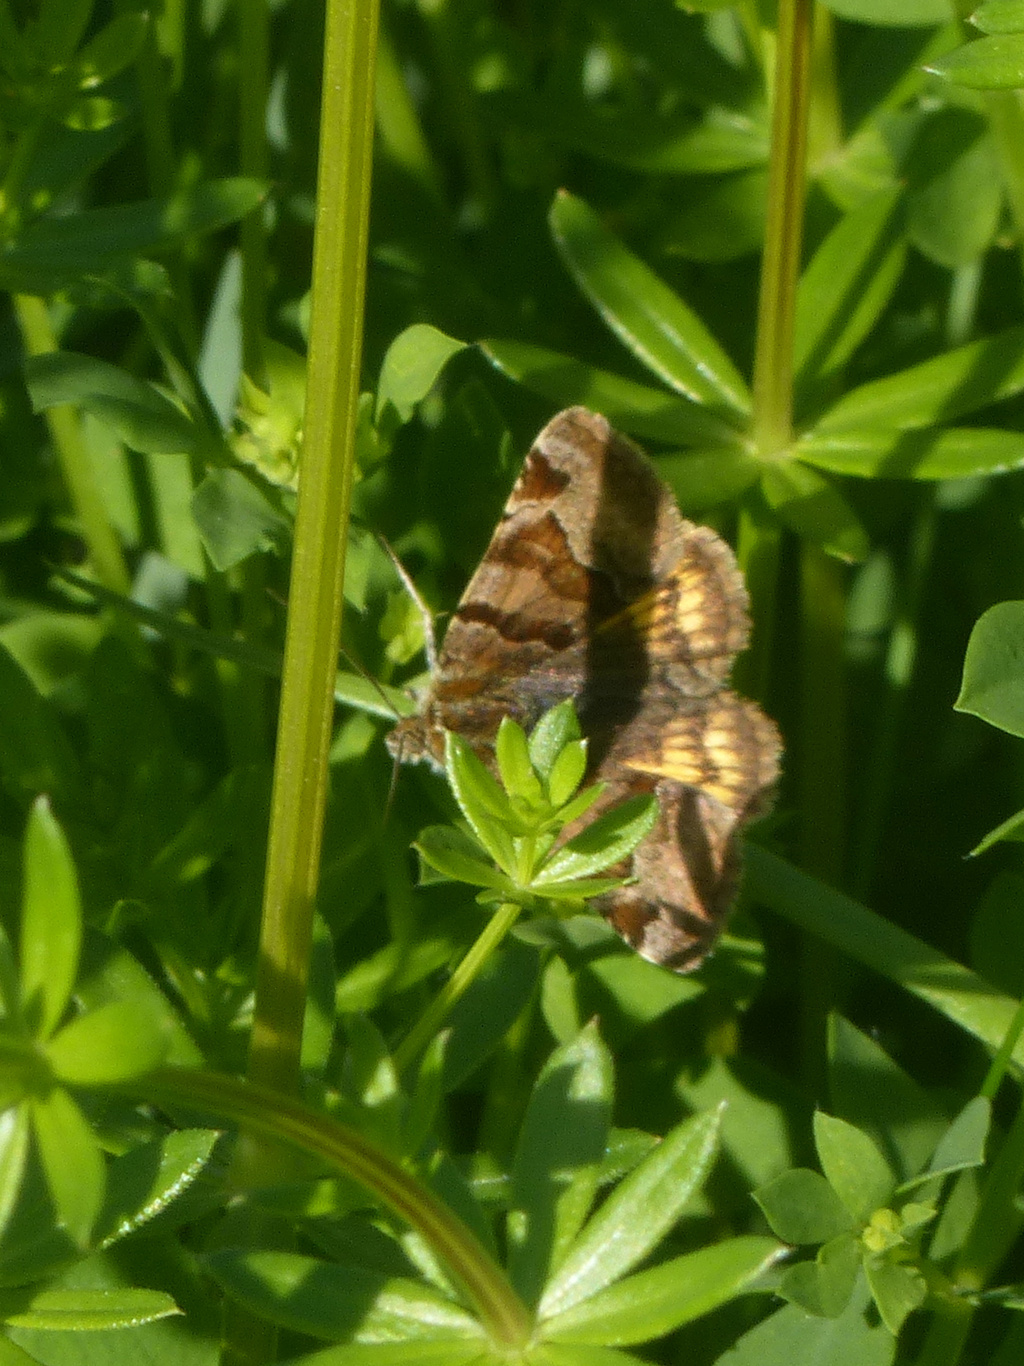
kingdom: Animalia
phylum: Arthropoda
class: Insecta
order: Lepidoptera
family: Erebidae
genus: Euclidia
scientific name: Euclidia glyphica
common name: Burnet companion
